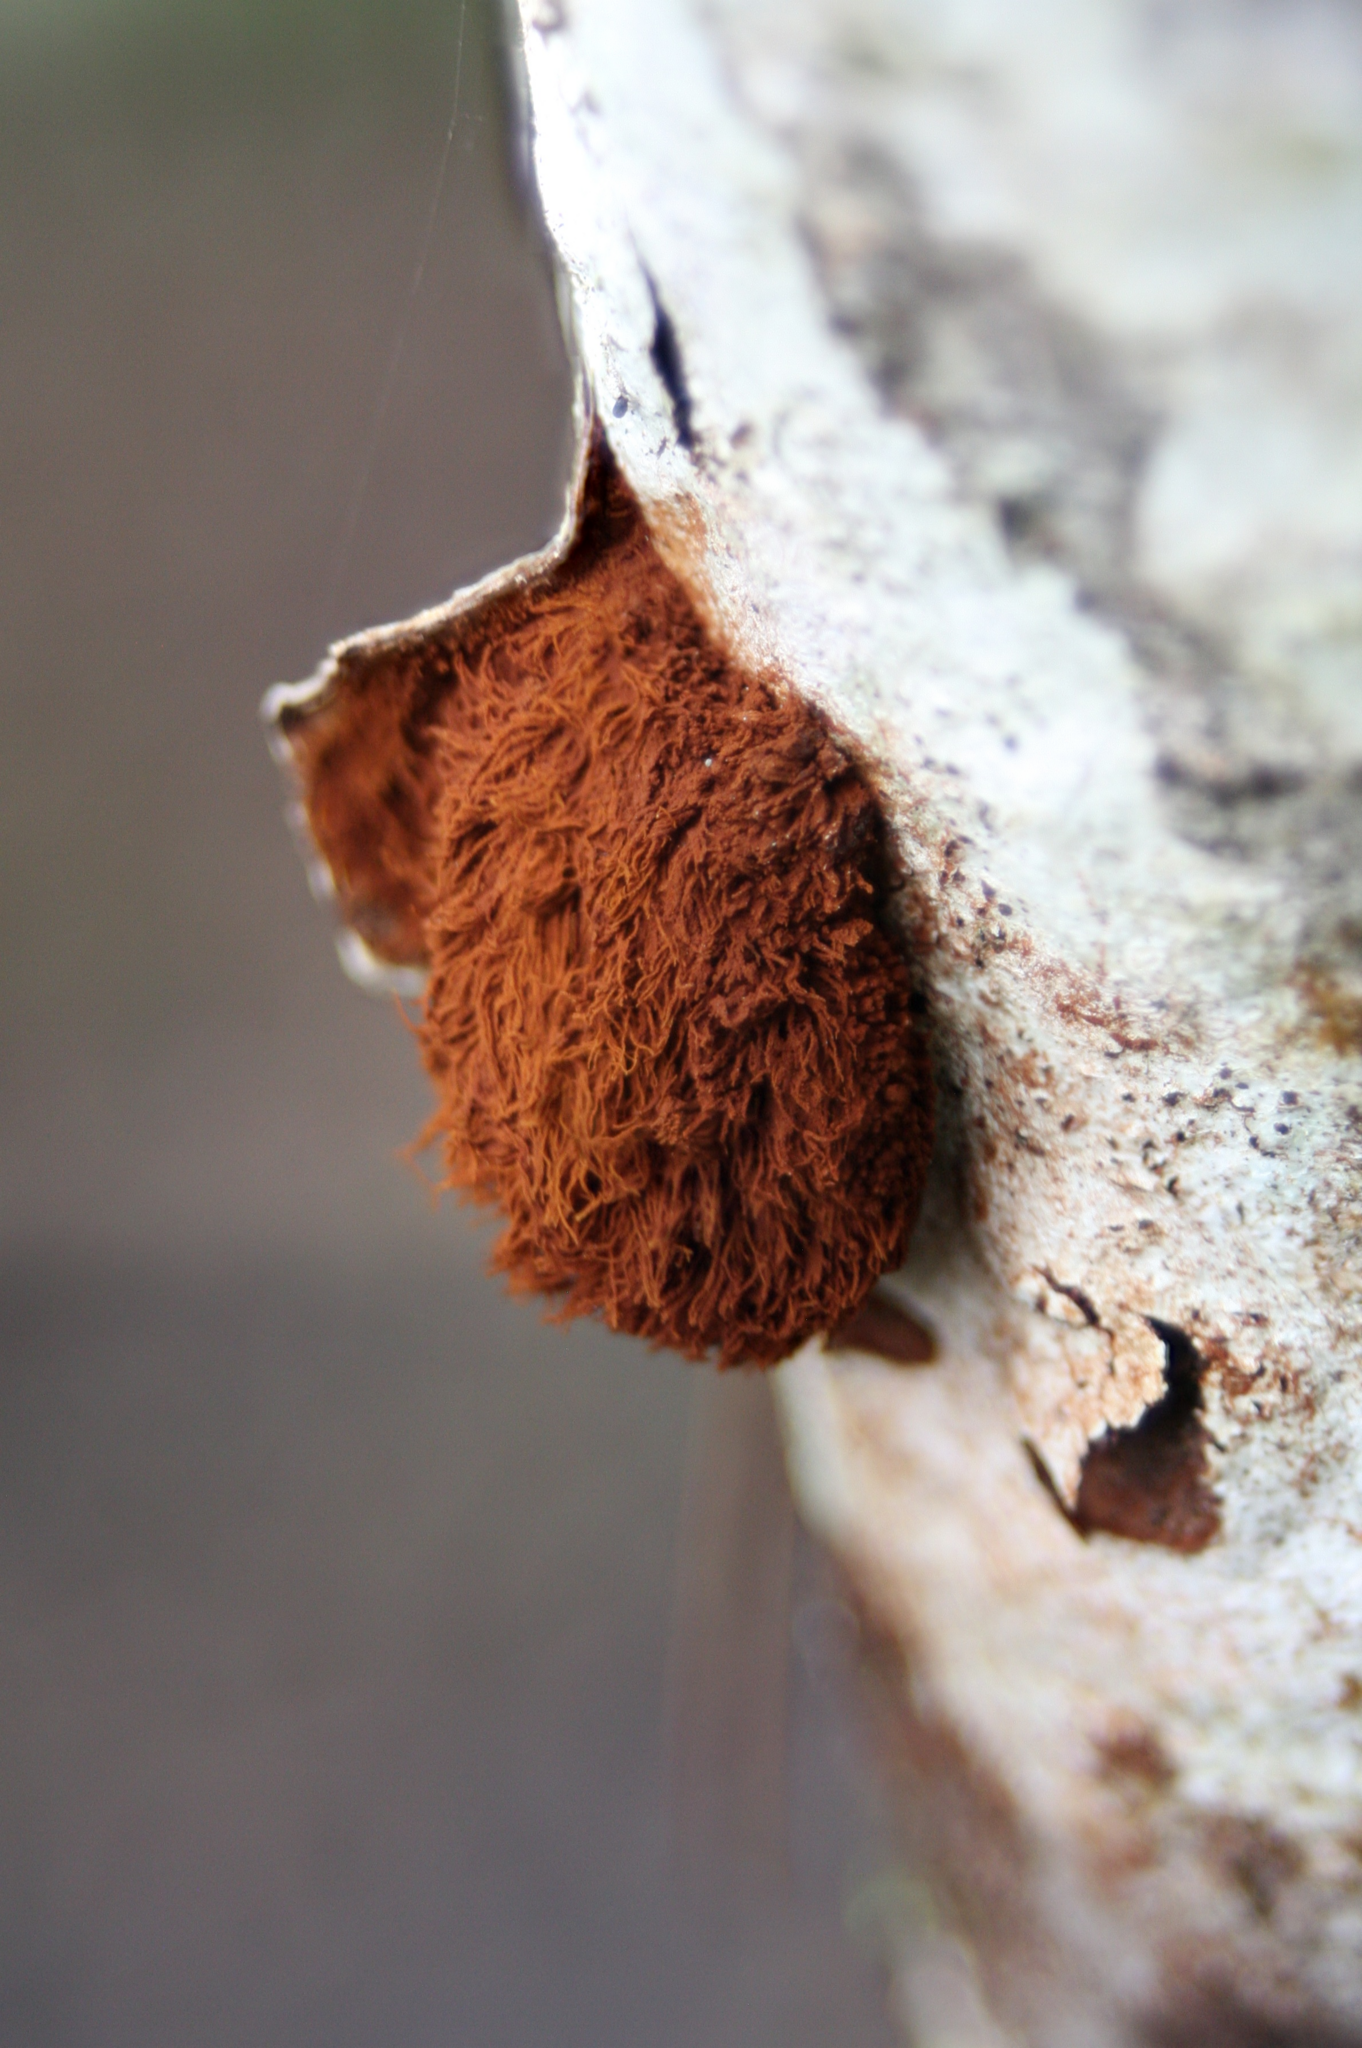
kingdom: Fungi
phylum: Basidiomycota
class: Agaricomycetes
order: Hymenochaetales
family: Hymenochaetaceae
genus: Inonotus
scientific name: Inonotus rickii
